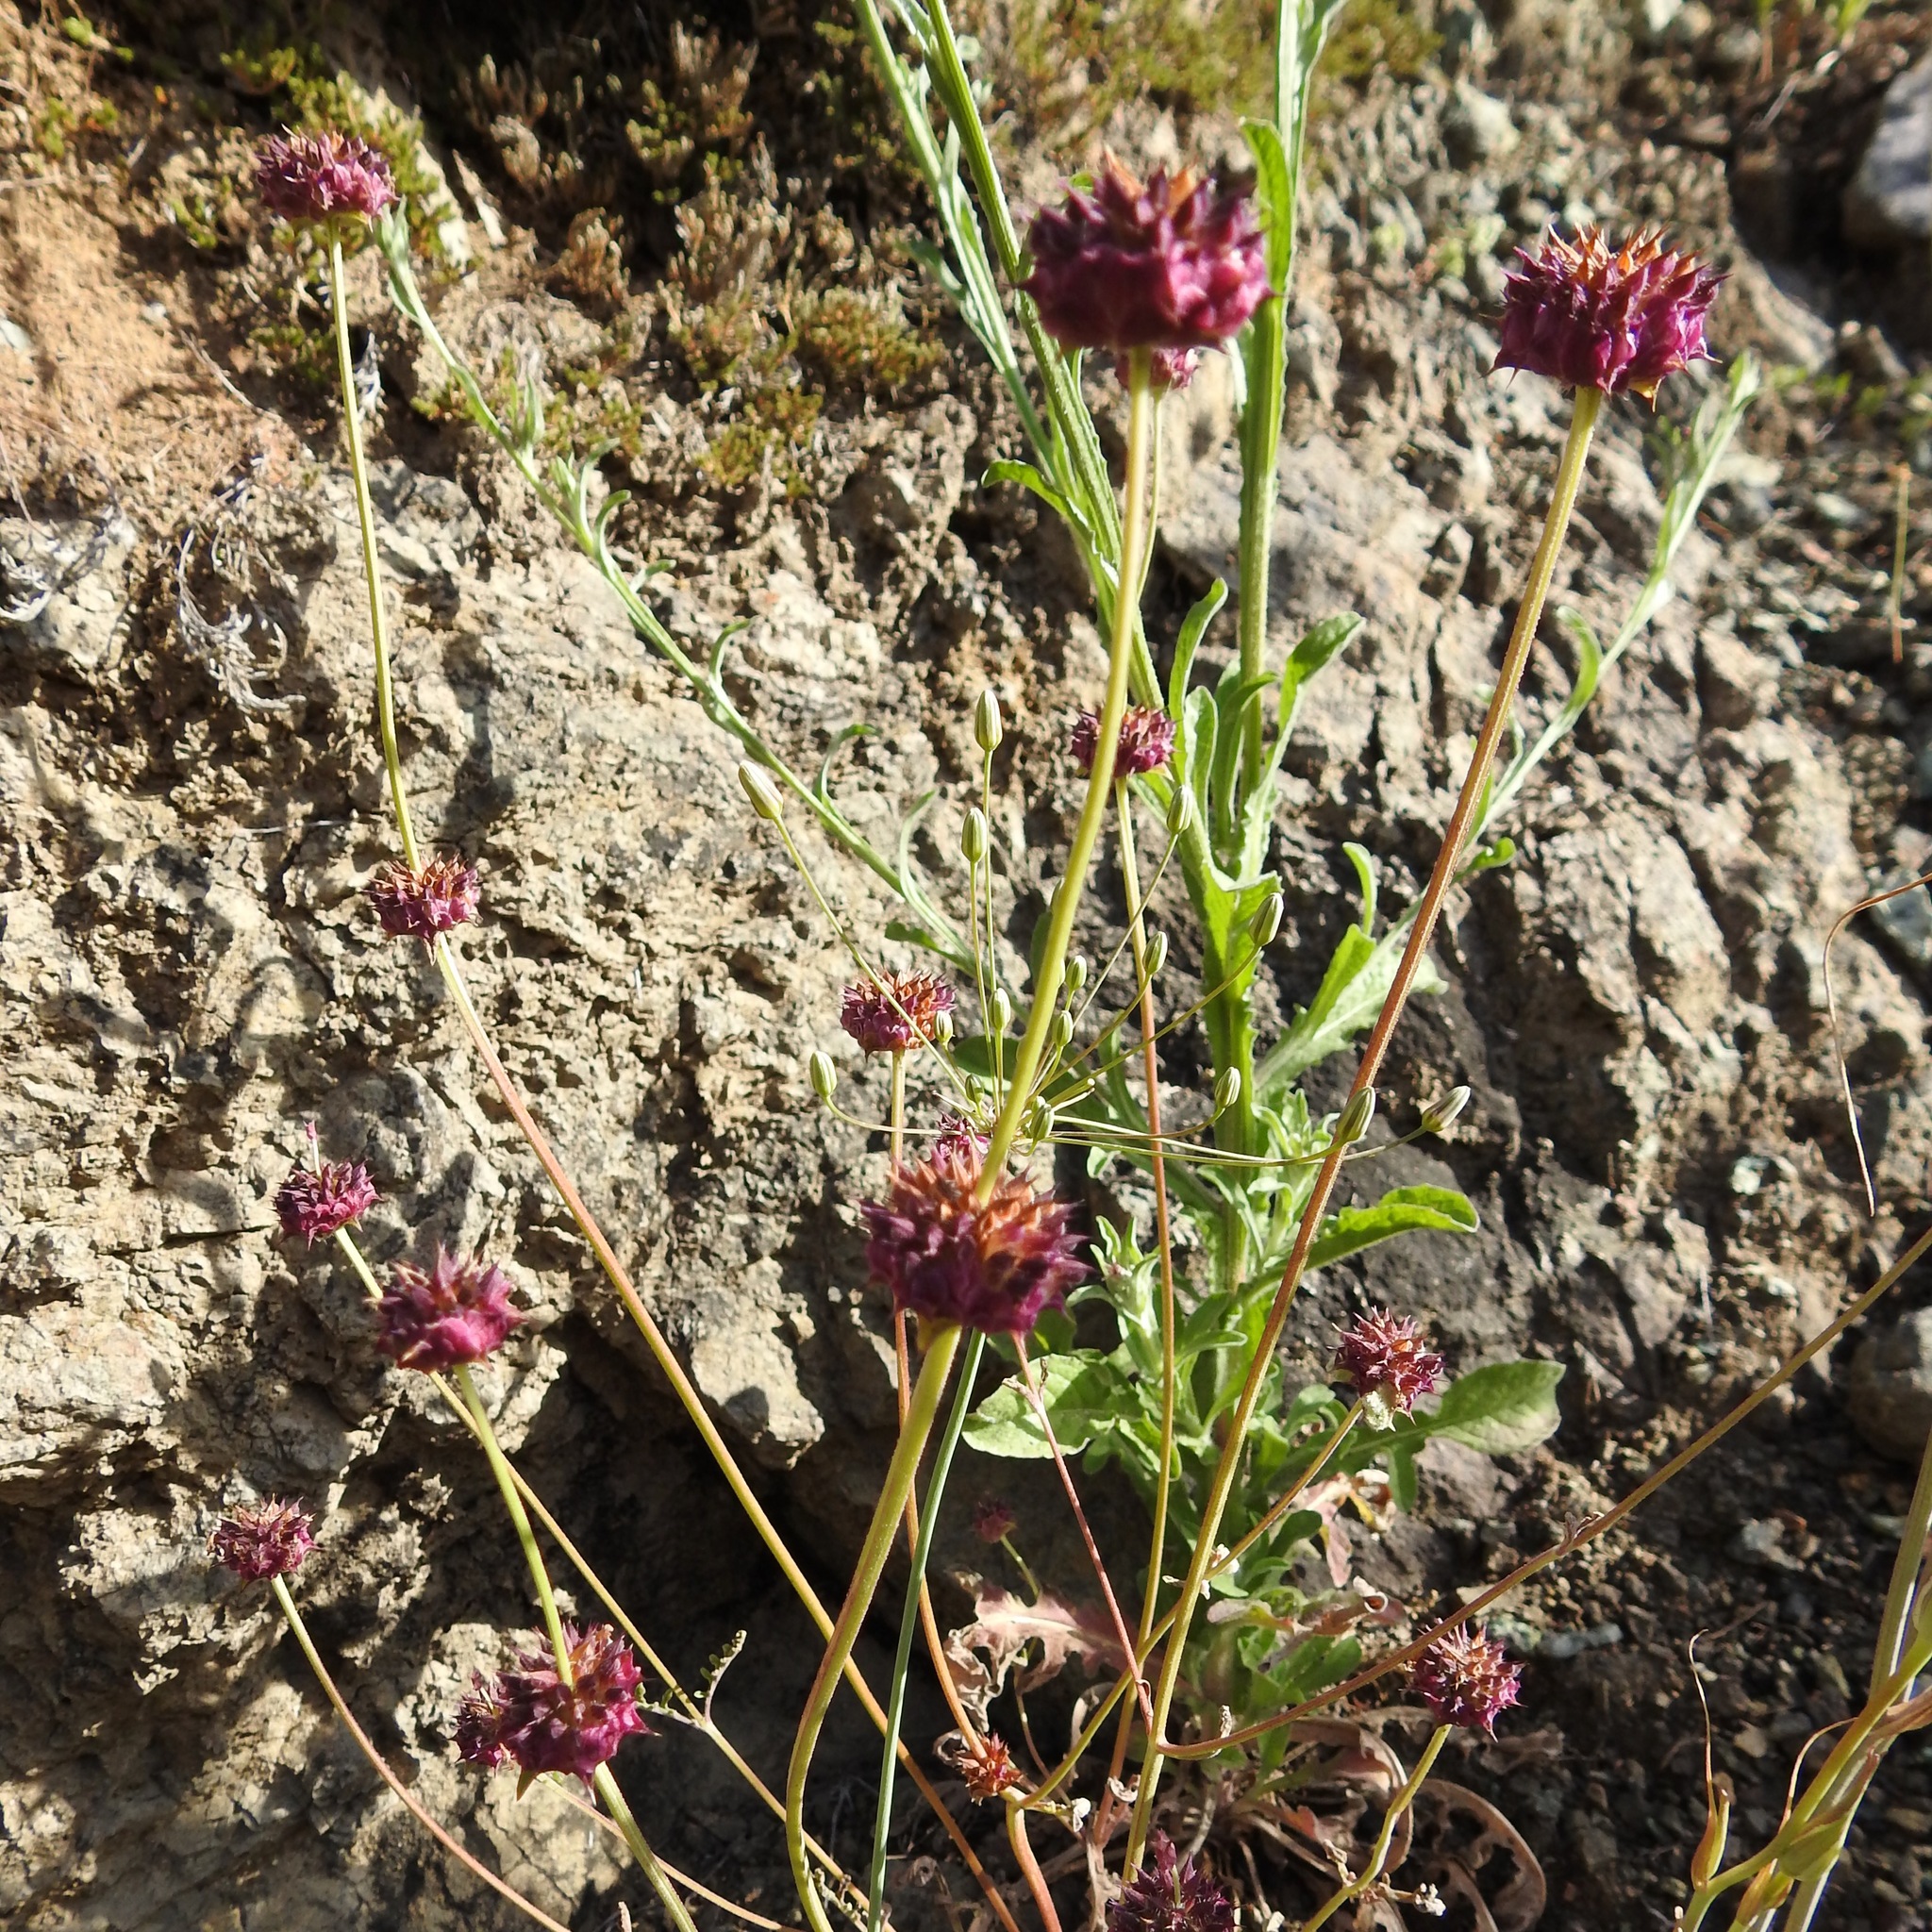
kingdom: Plantae
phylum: Tracheophyta
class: Magnoliopsida
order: Lamiales
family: Lamiaceae
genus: Salvia
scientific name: Salvia columbariae
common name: Chia
